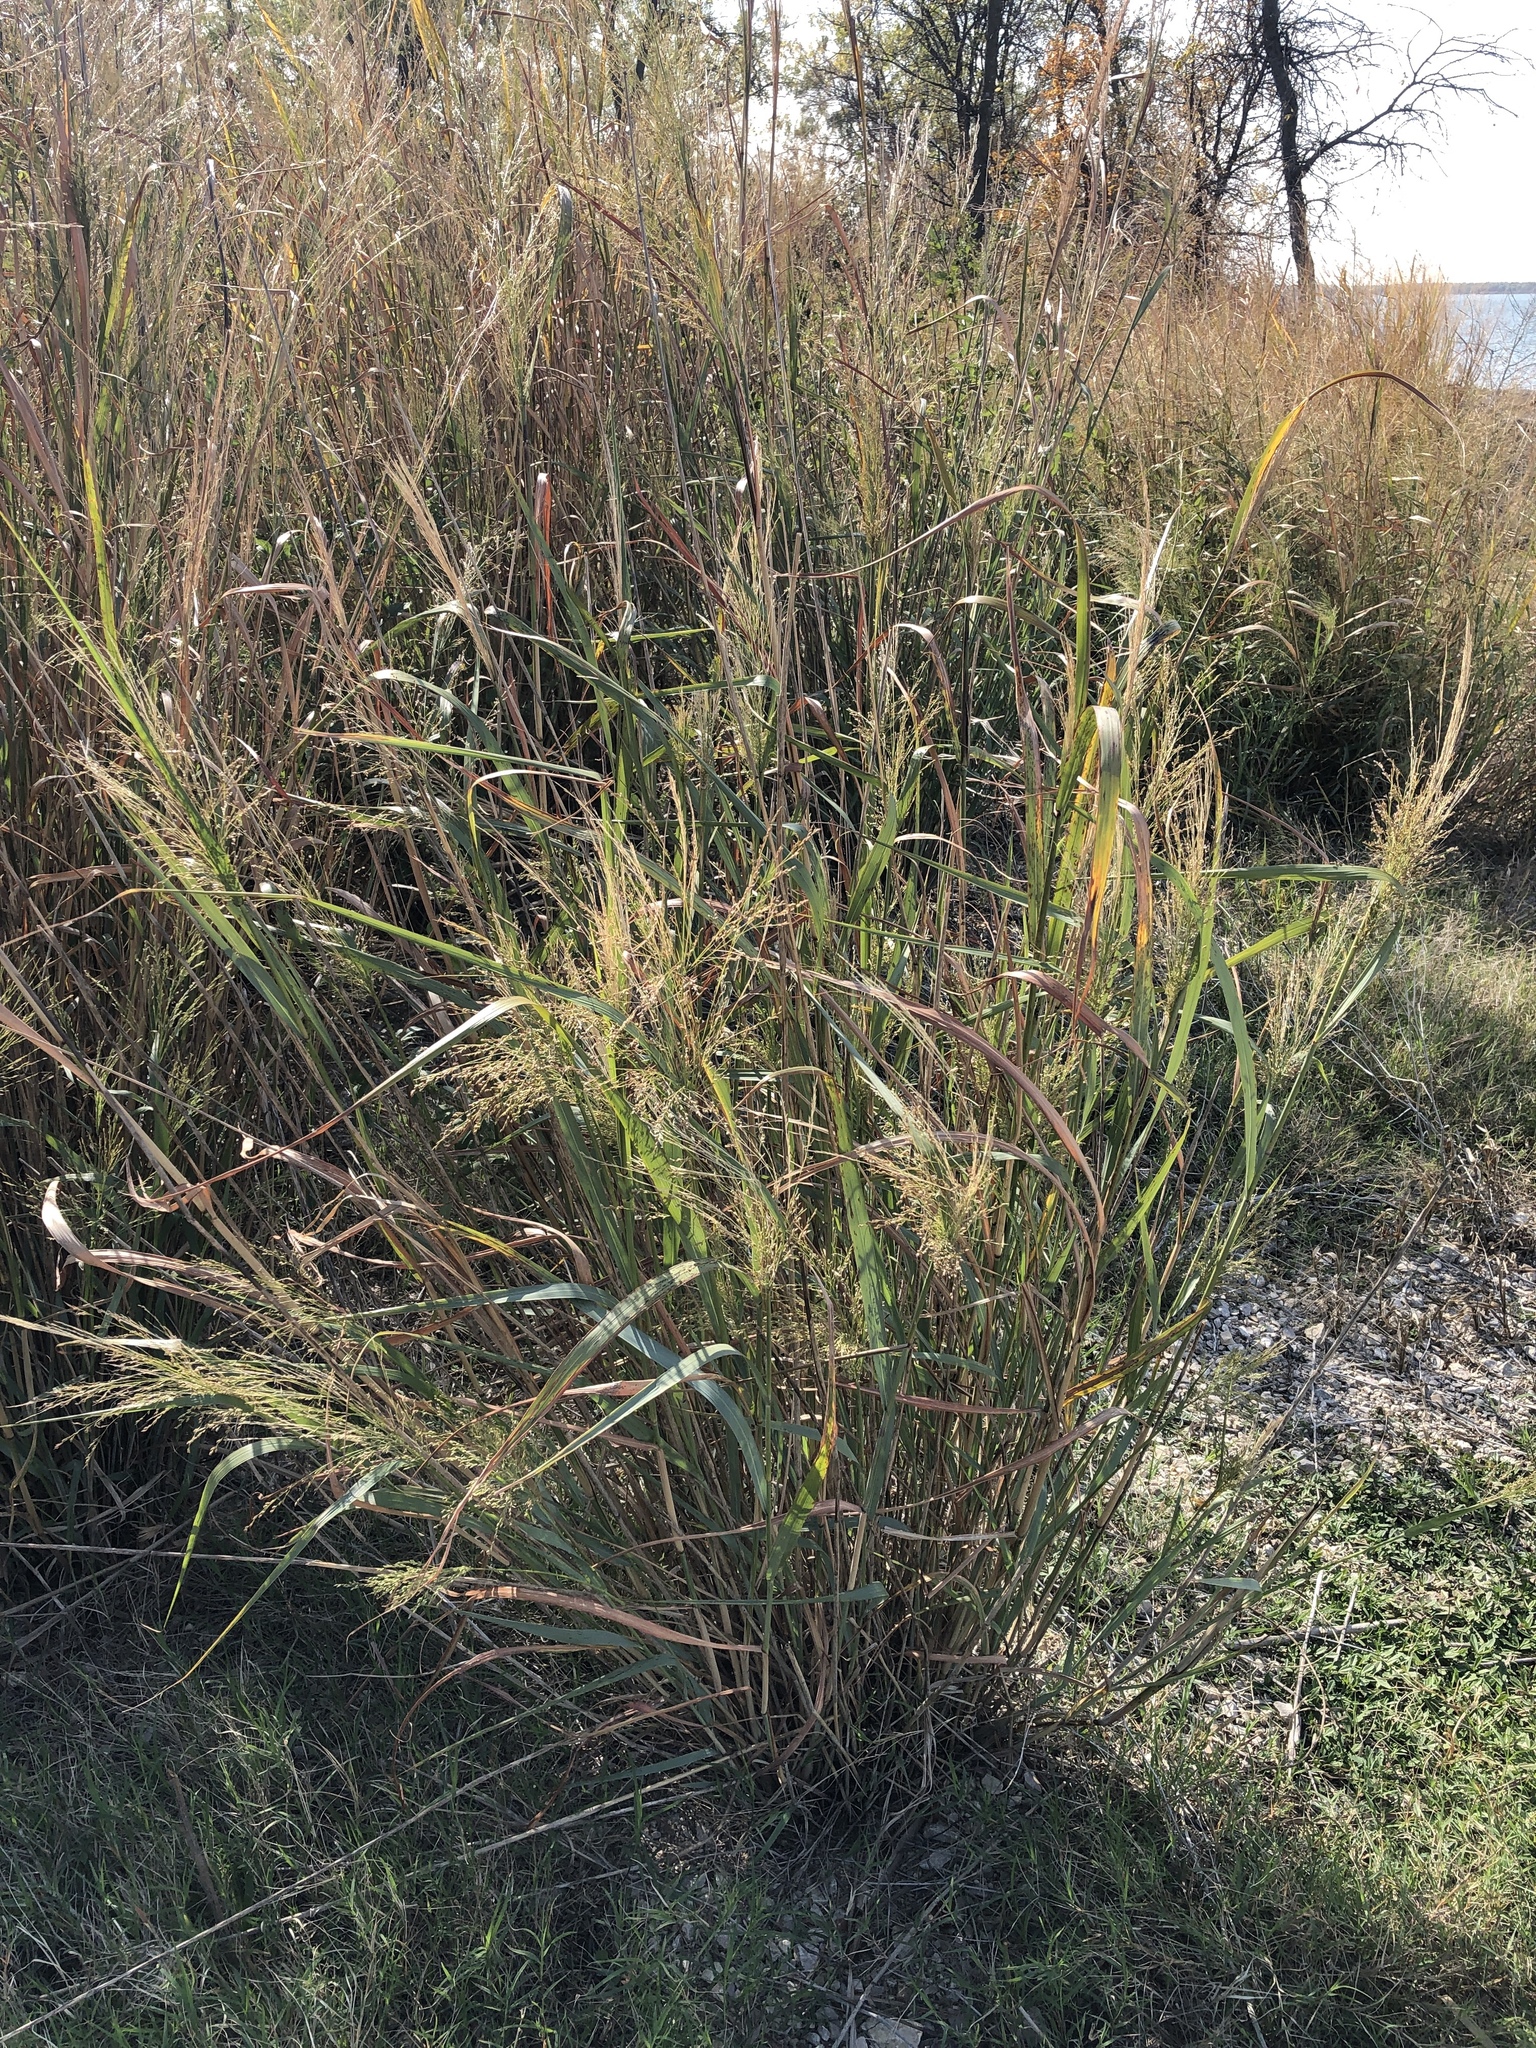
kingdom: Plantae
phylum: Tracheophyta
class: Liliopsida
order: Poales
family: Poaceae
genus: Panicum
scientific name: Panicum virgatum
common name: Switchgrass
